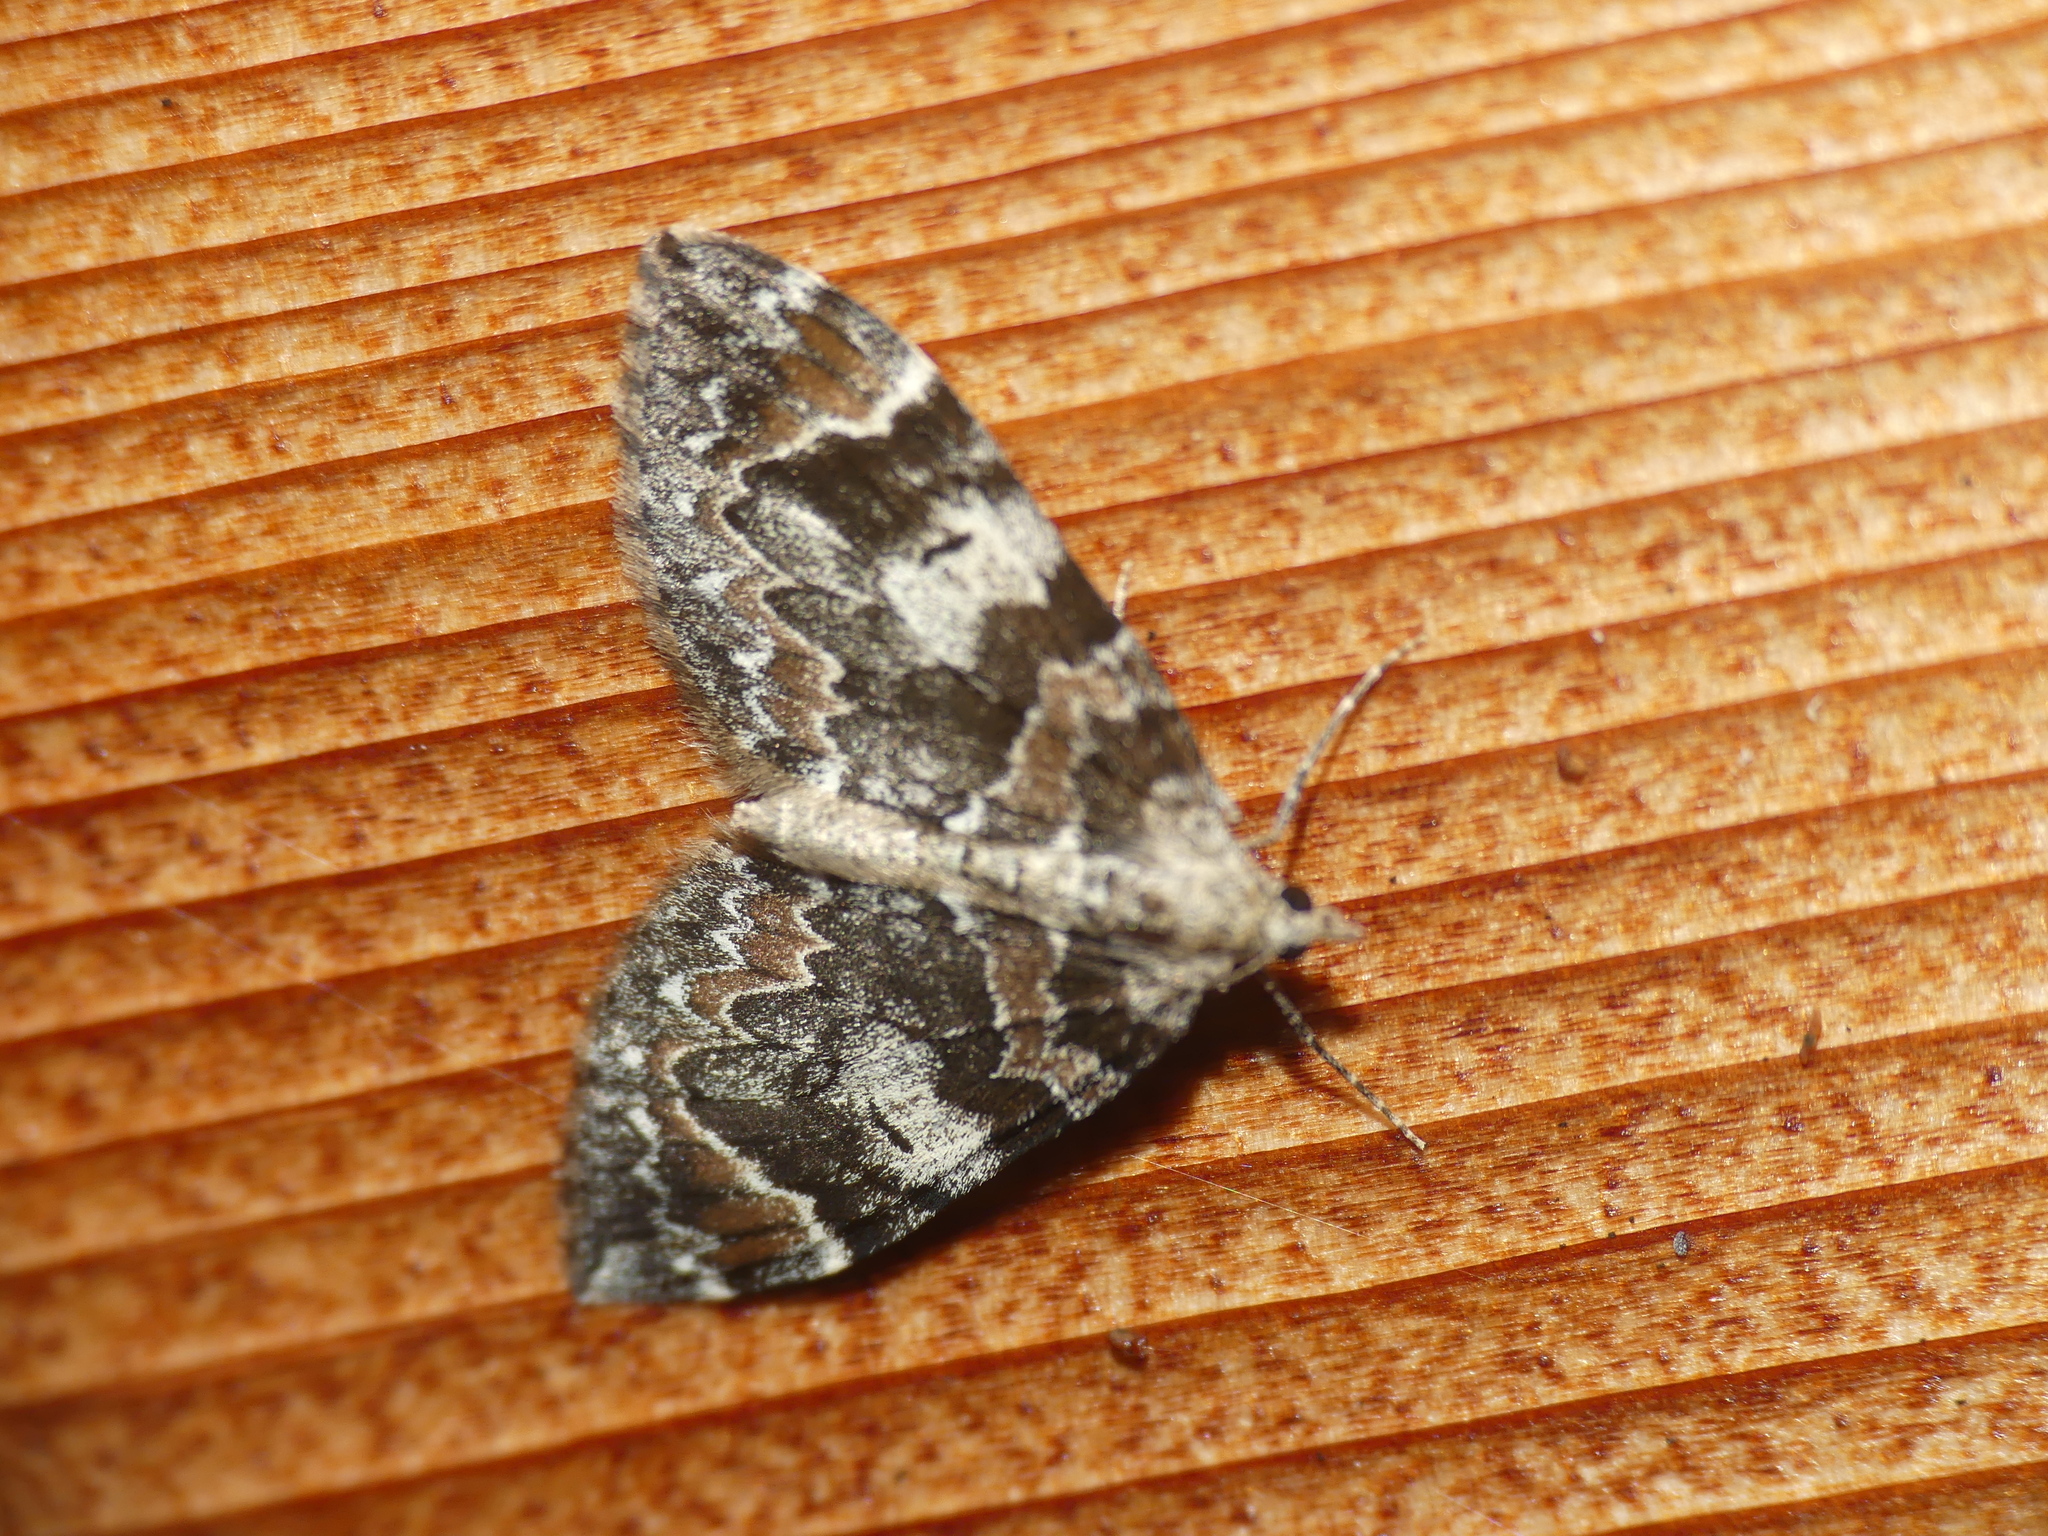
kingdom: Animalia
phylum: Arthropoda
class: Insecta
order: Lepidoptera
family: Geometridae
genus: Dysstroma
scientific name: Dysstroma citrata
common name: Dark marbled carpet
